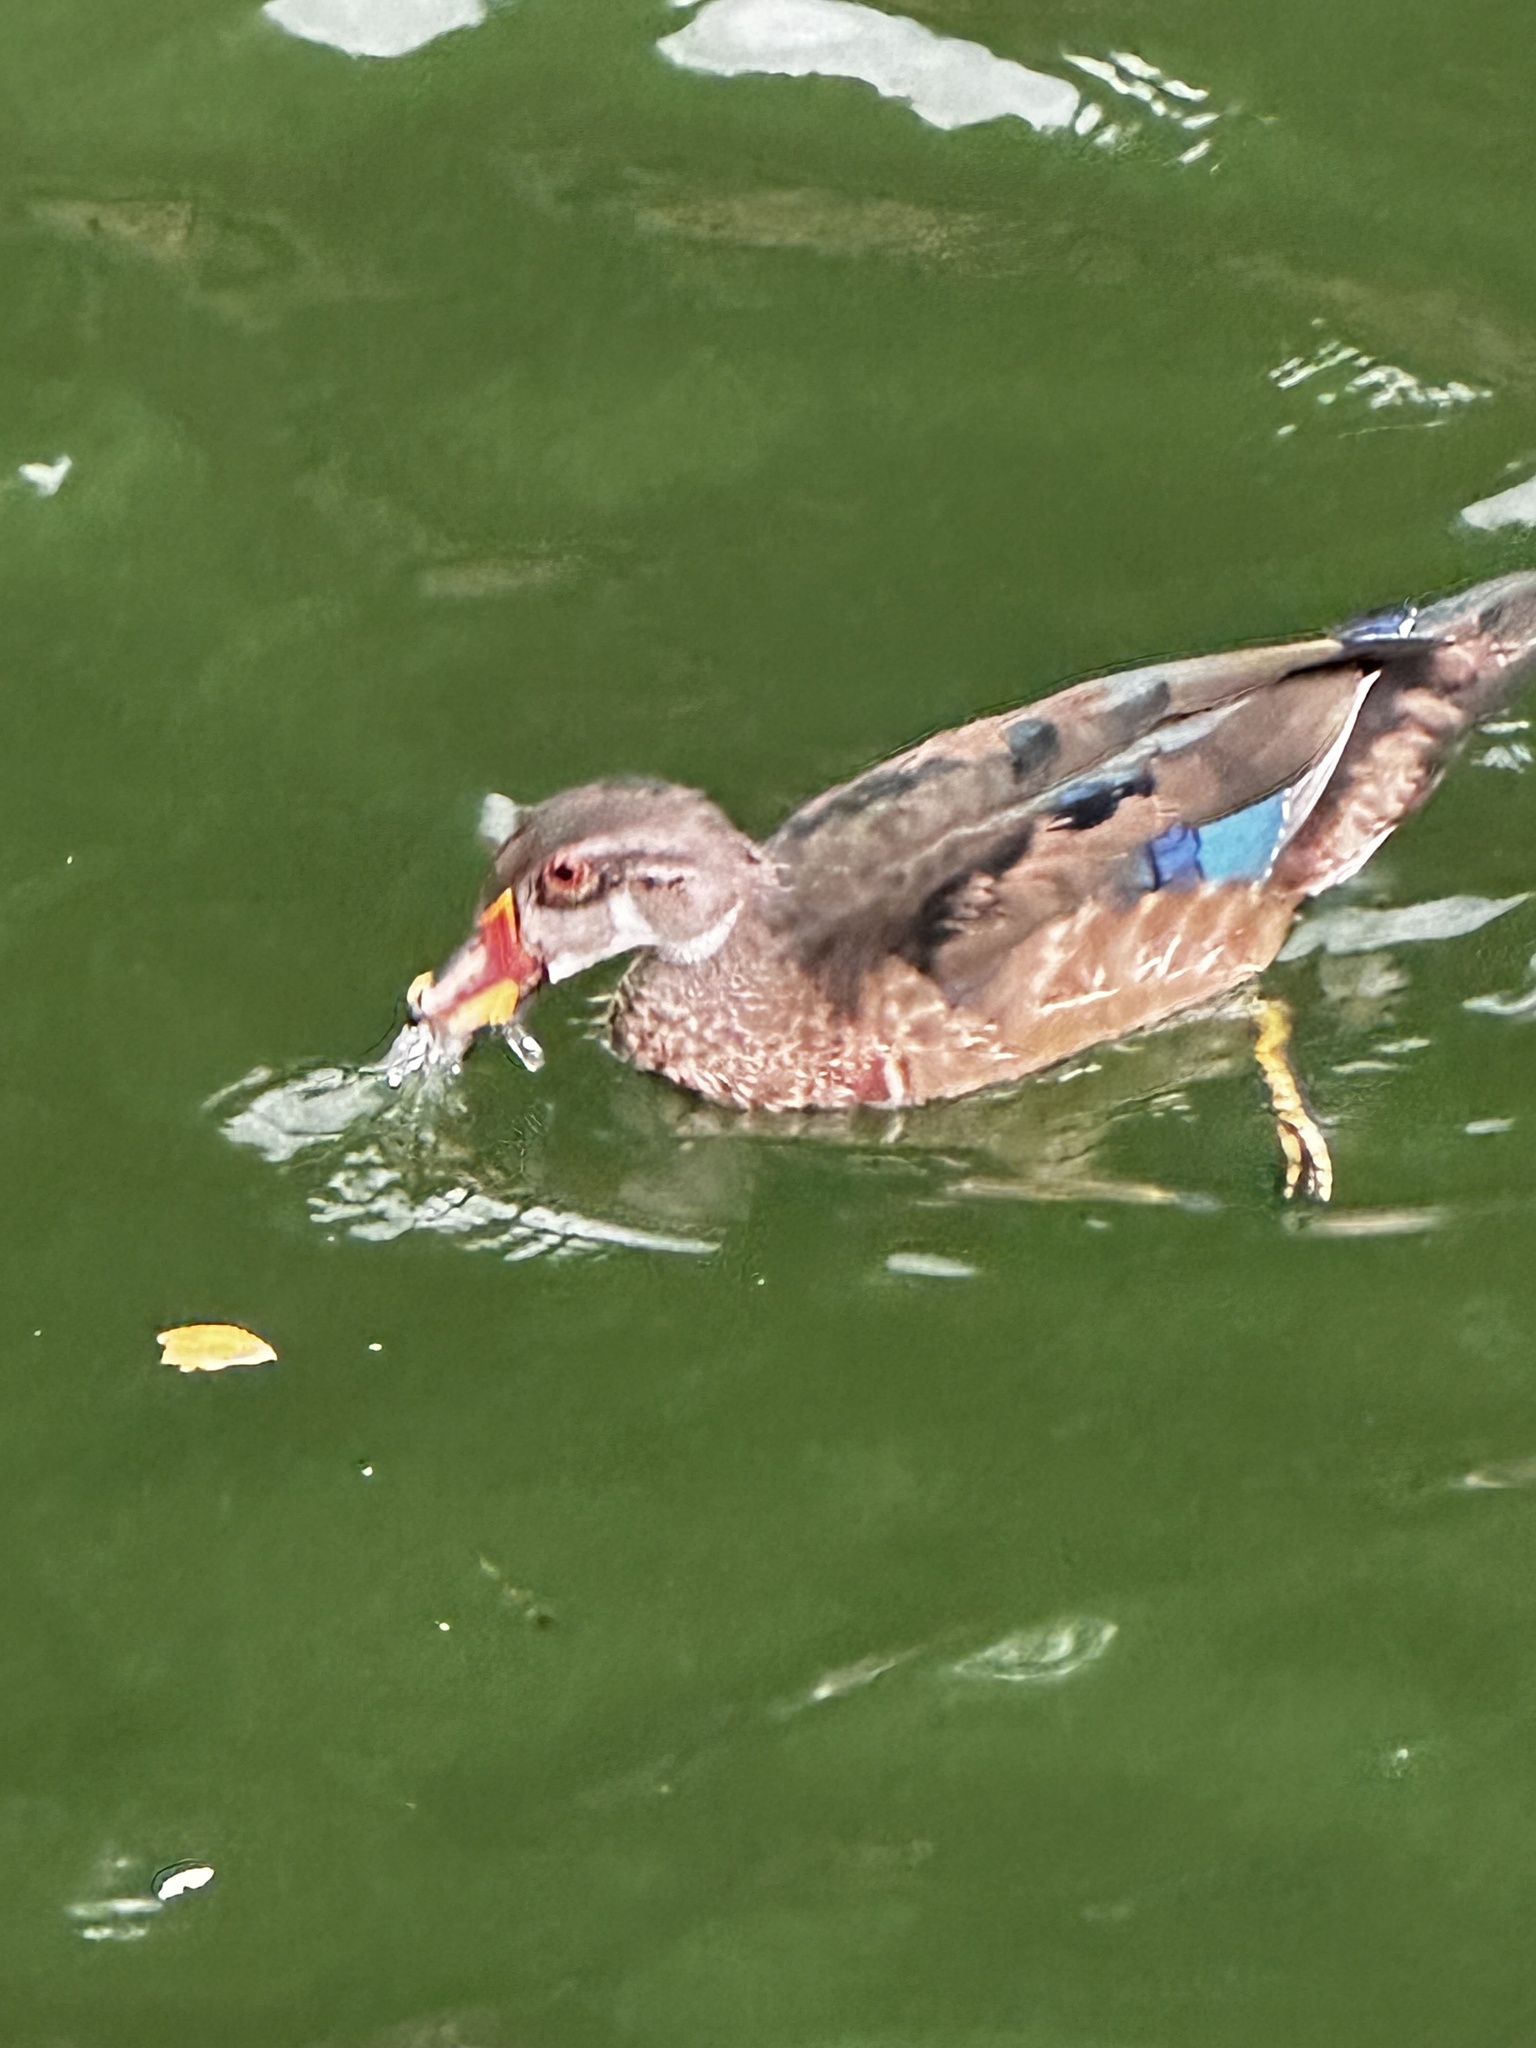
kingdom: Animalia
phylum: Chordata
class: Aves
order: Anseriformes
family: Anatidae
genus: Aix
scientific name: Aix sponsa
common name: Wood duck
